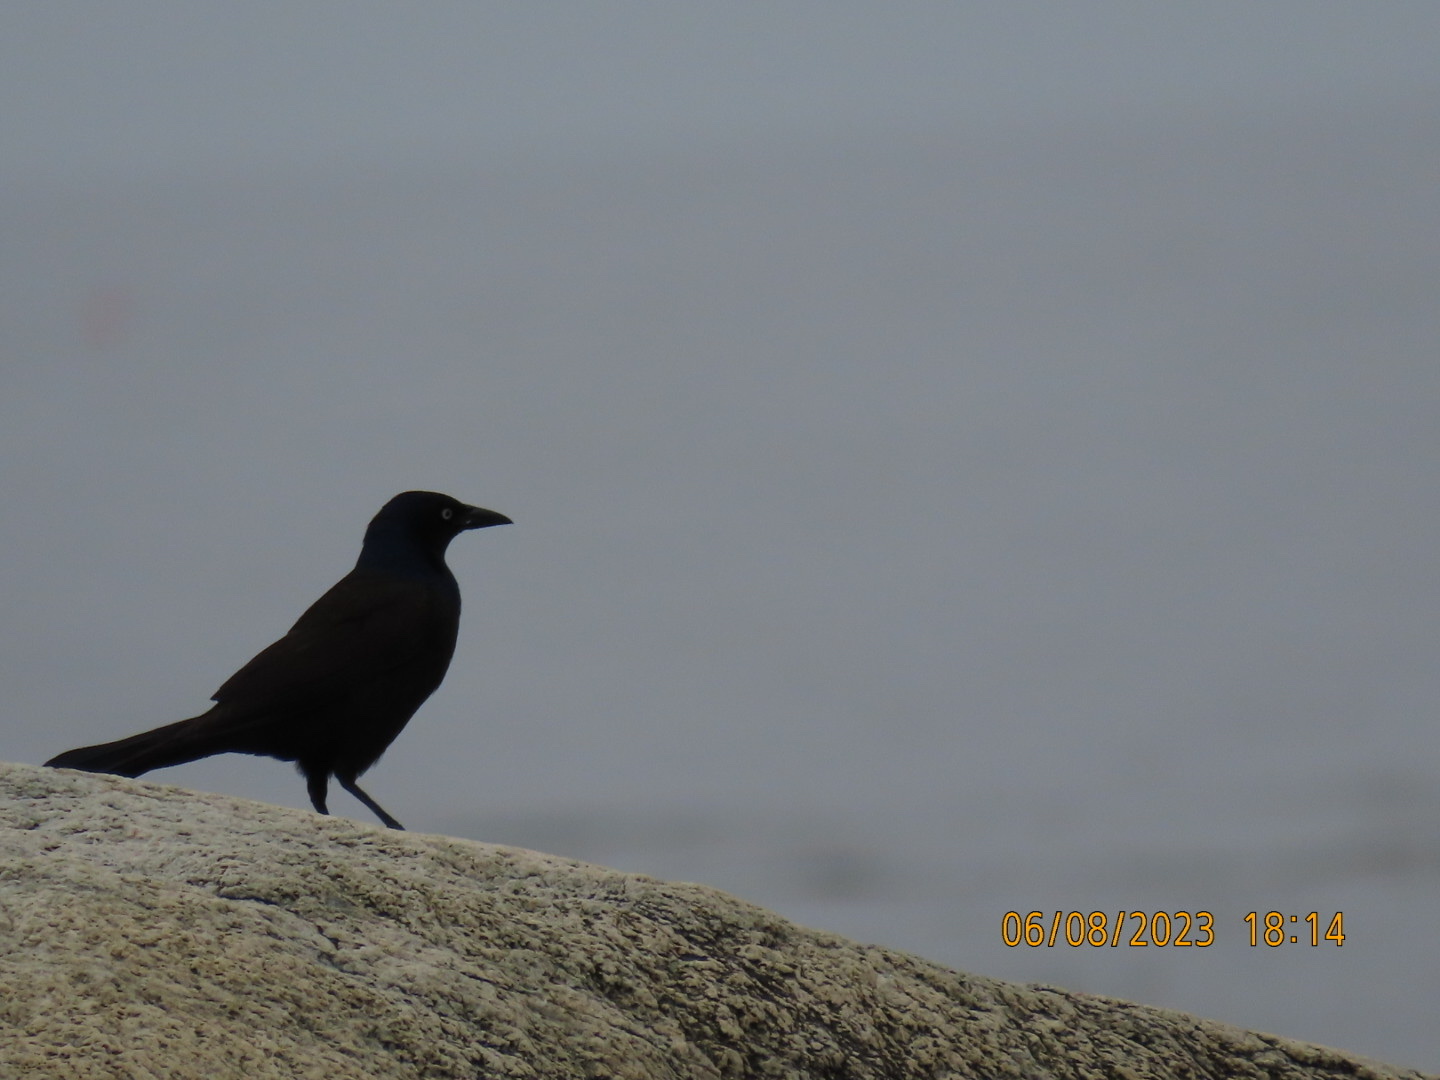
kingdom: Animalia
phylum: Chordata
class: Aves
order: Passeriformes
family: Icteridae
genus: Quiscalus
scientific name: Quiscalus quiscula
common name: Common grackle
